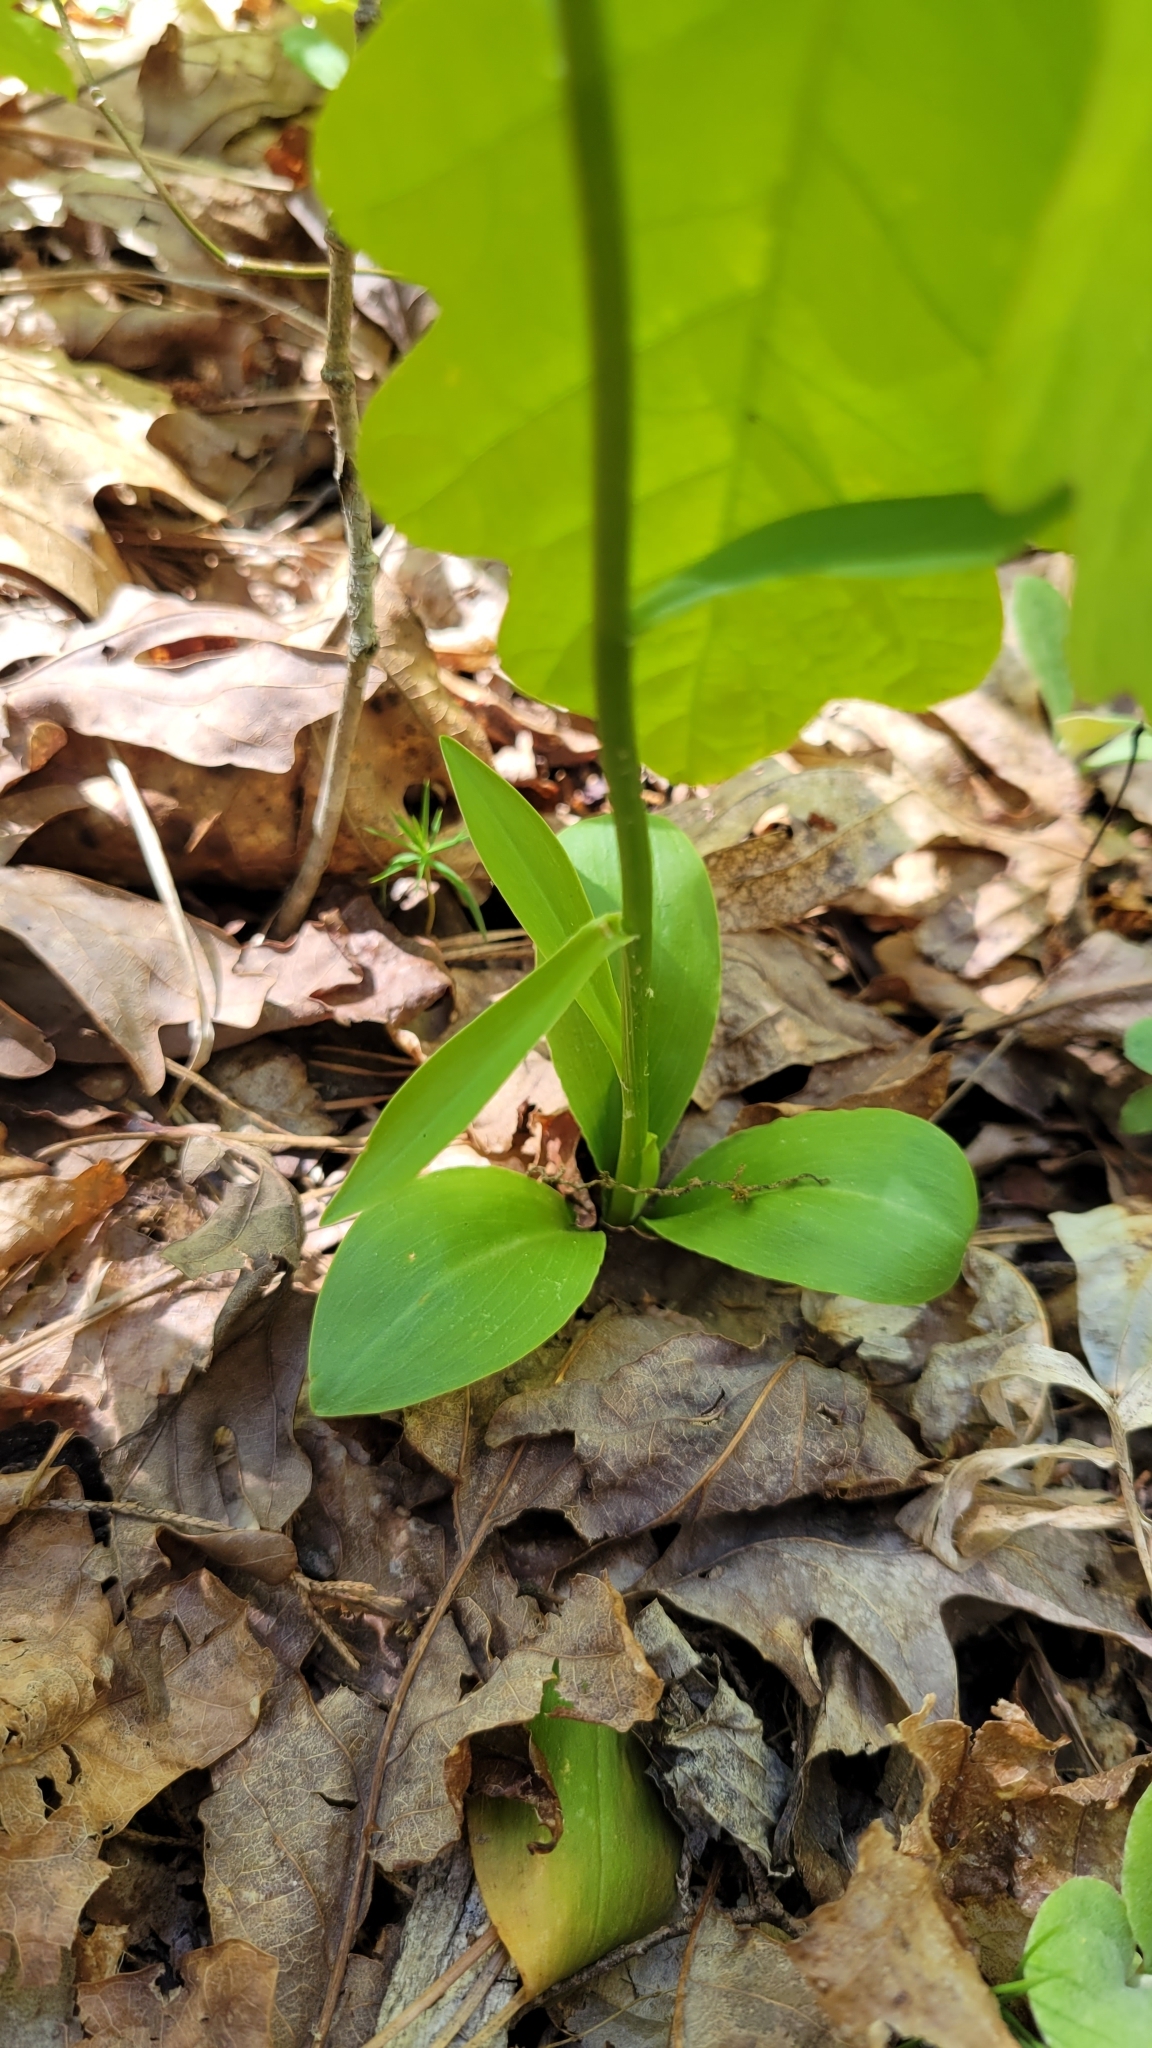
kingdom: Plantae
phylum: Tracheophyta
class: Liliopsida
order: Liliales
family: Melanthiaceae
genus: Chamaelirium
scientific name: Chamaelirium luteum
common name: Fairy-wand
